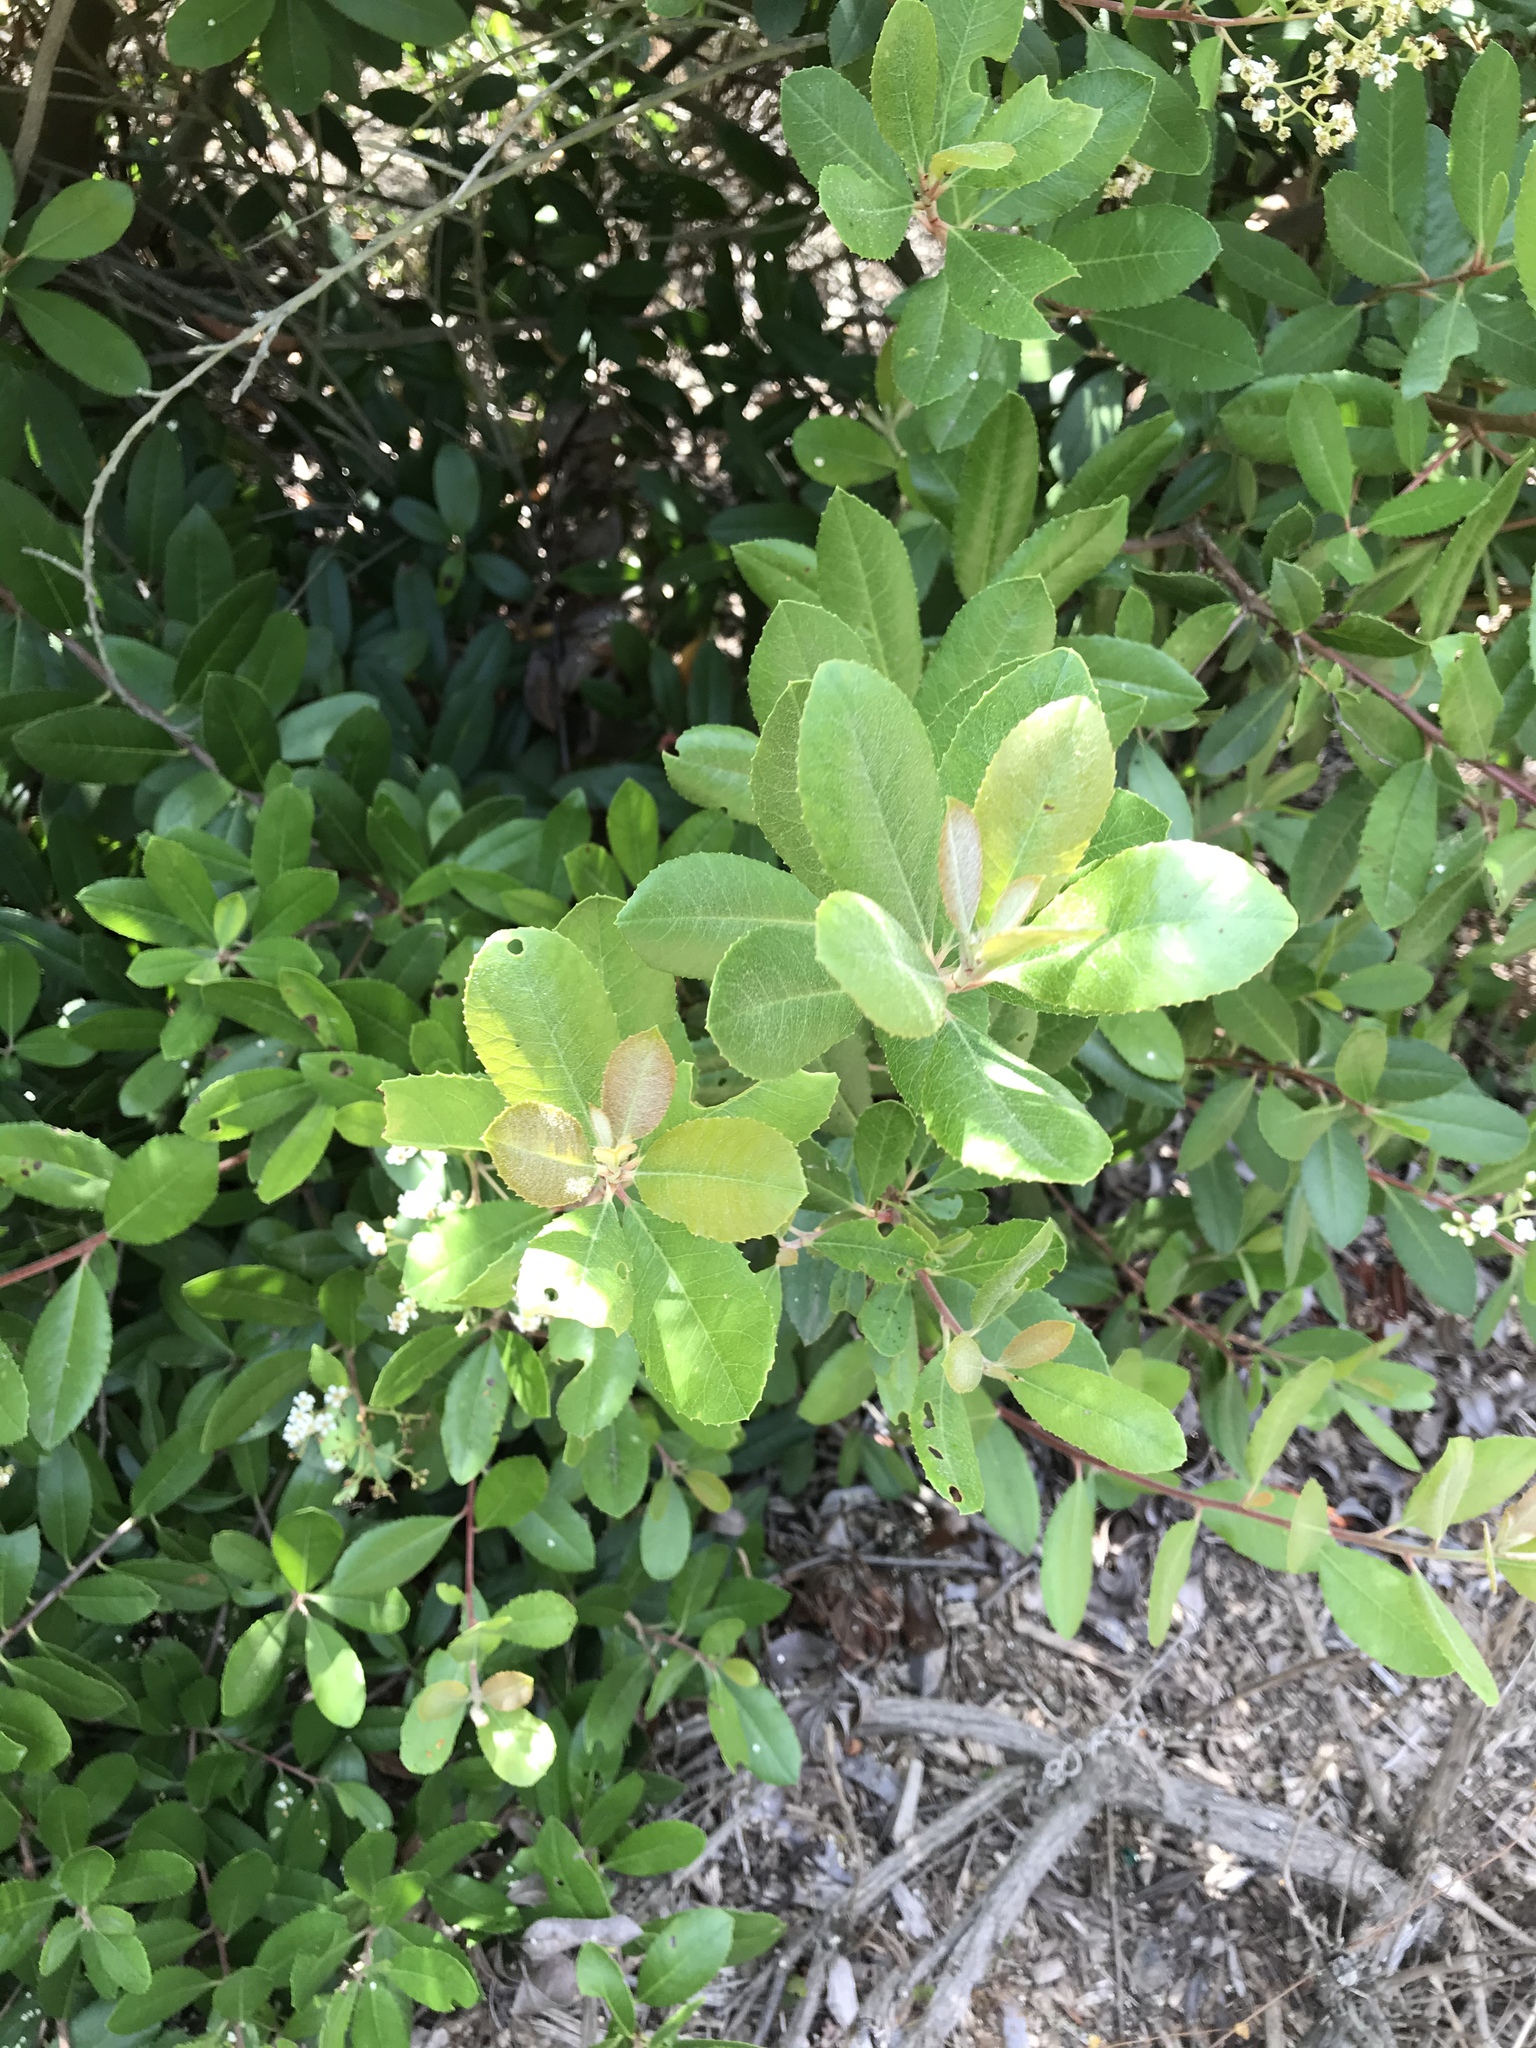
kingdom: Plantae
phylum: Tracheophyta
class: Magnoliopsida
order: Rosales
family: Rosaceae
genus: Heteromeles
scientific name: Heteromeles arbutifolia
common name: California-holly
